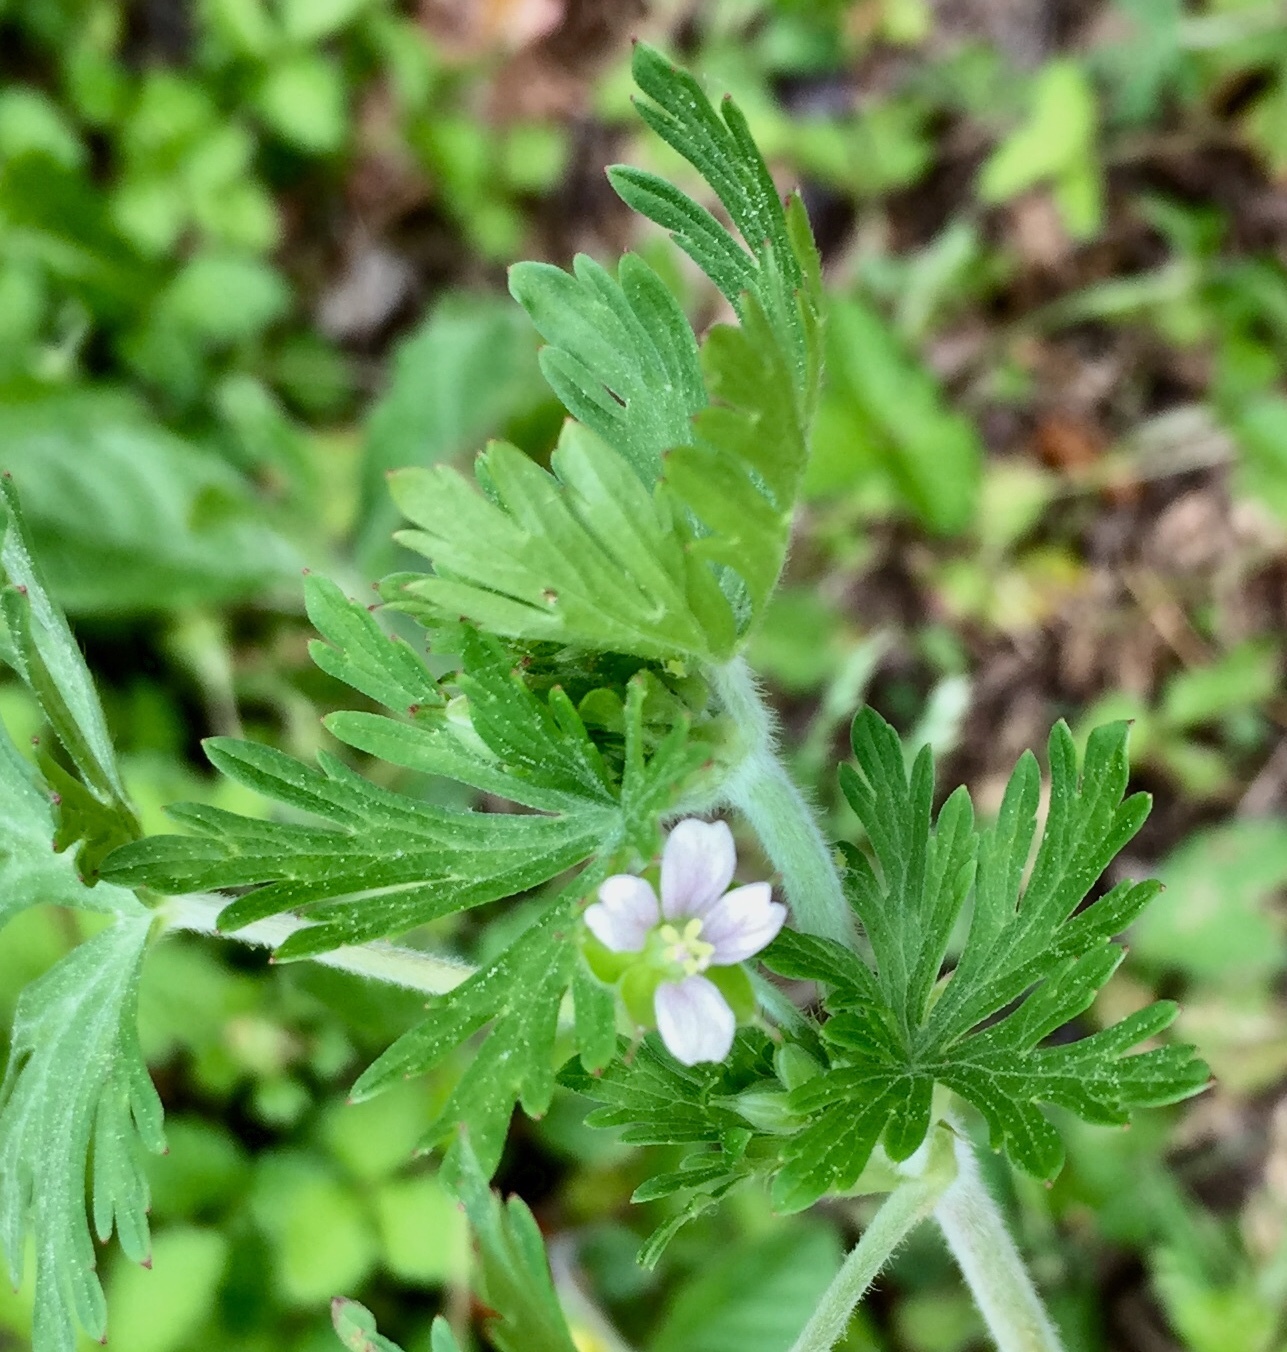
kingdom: Plantae
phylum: Tracheophyta
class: Magnoliopsida
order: Geraniales
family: Geraniaceae
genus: Geranium
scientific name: Geranium carolinianum
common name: Carolina crane's-bill
